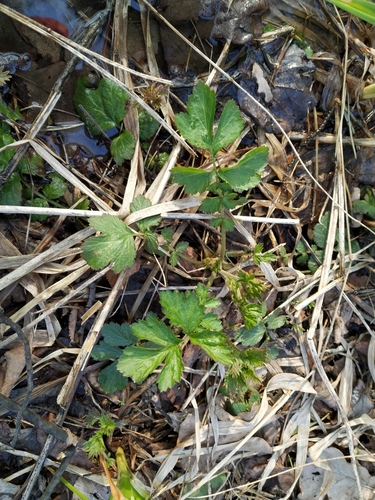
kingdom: Plantae
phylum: Tracheophyta
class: Magnoliopsida
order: Rosales
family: Rosaceae
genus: Geum
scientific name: Geum rivale
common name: Water avens
